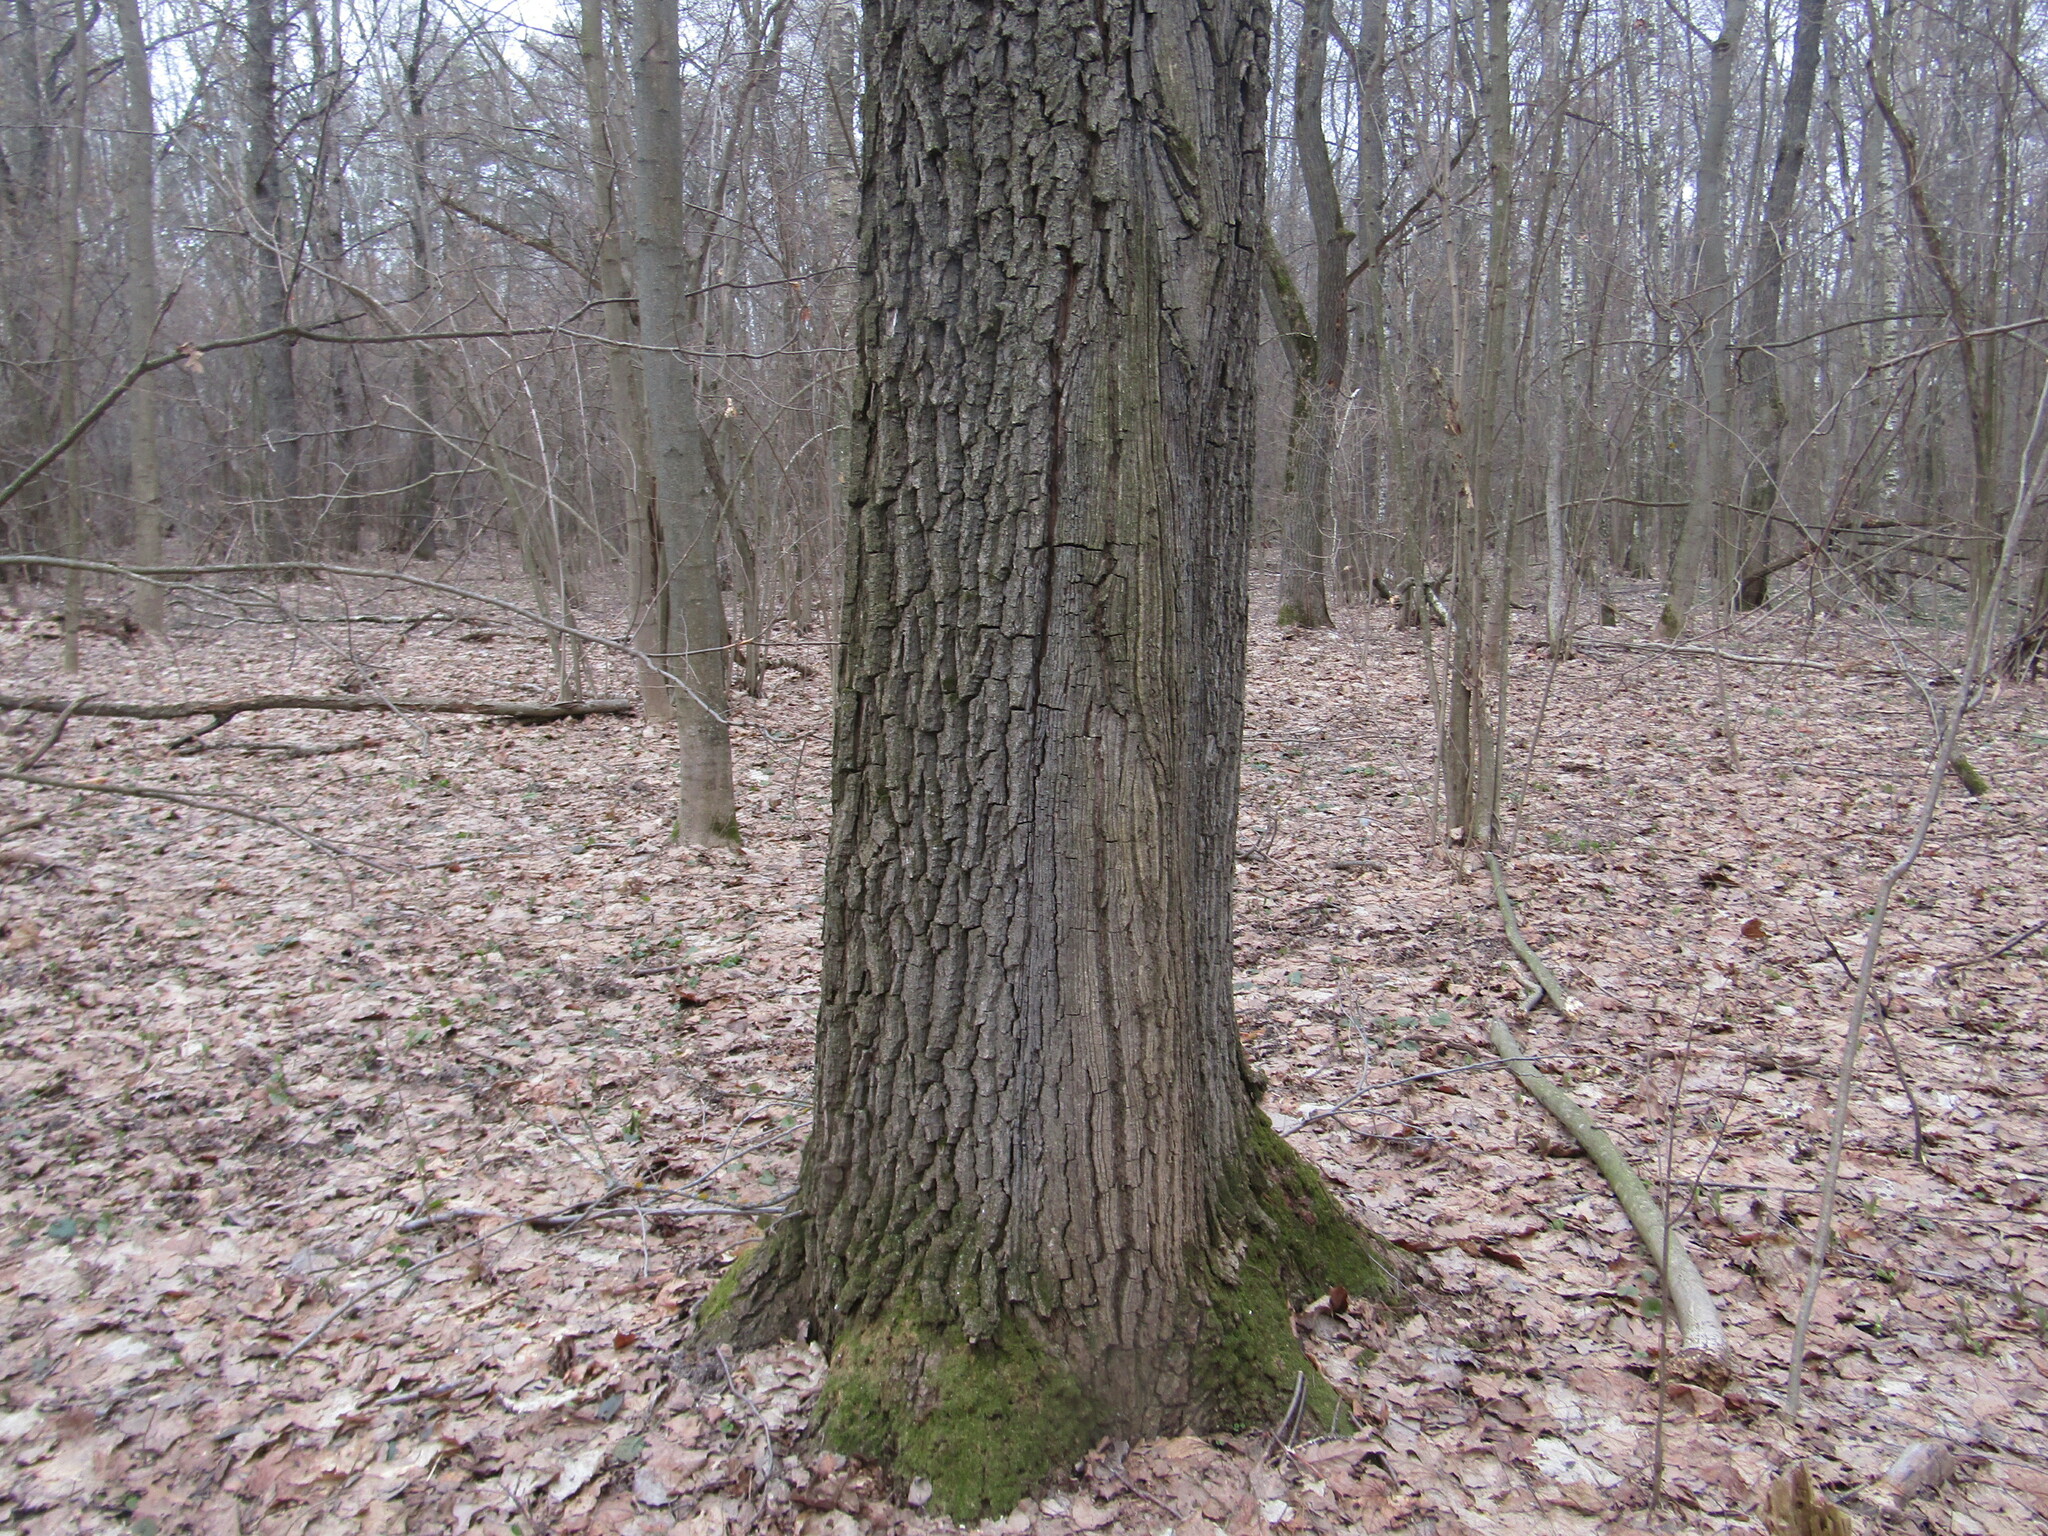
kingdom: Plantae
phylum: Tracheophyta
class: Magnoliopsida
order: Fagales
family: Fagaceae
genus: Quercus
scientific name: Quercus robur
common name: Pedunculate oak
